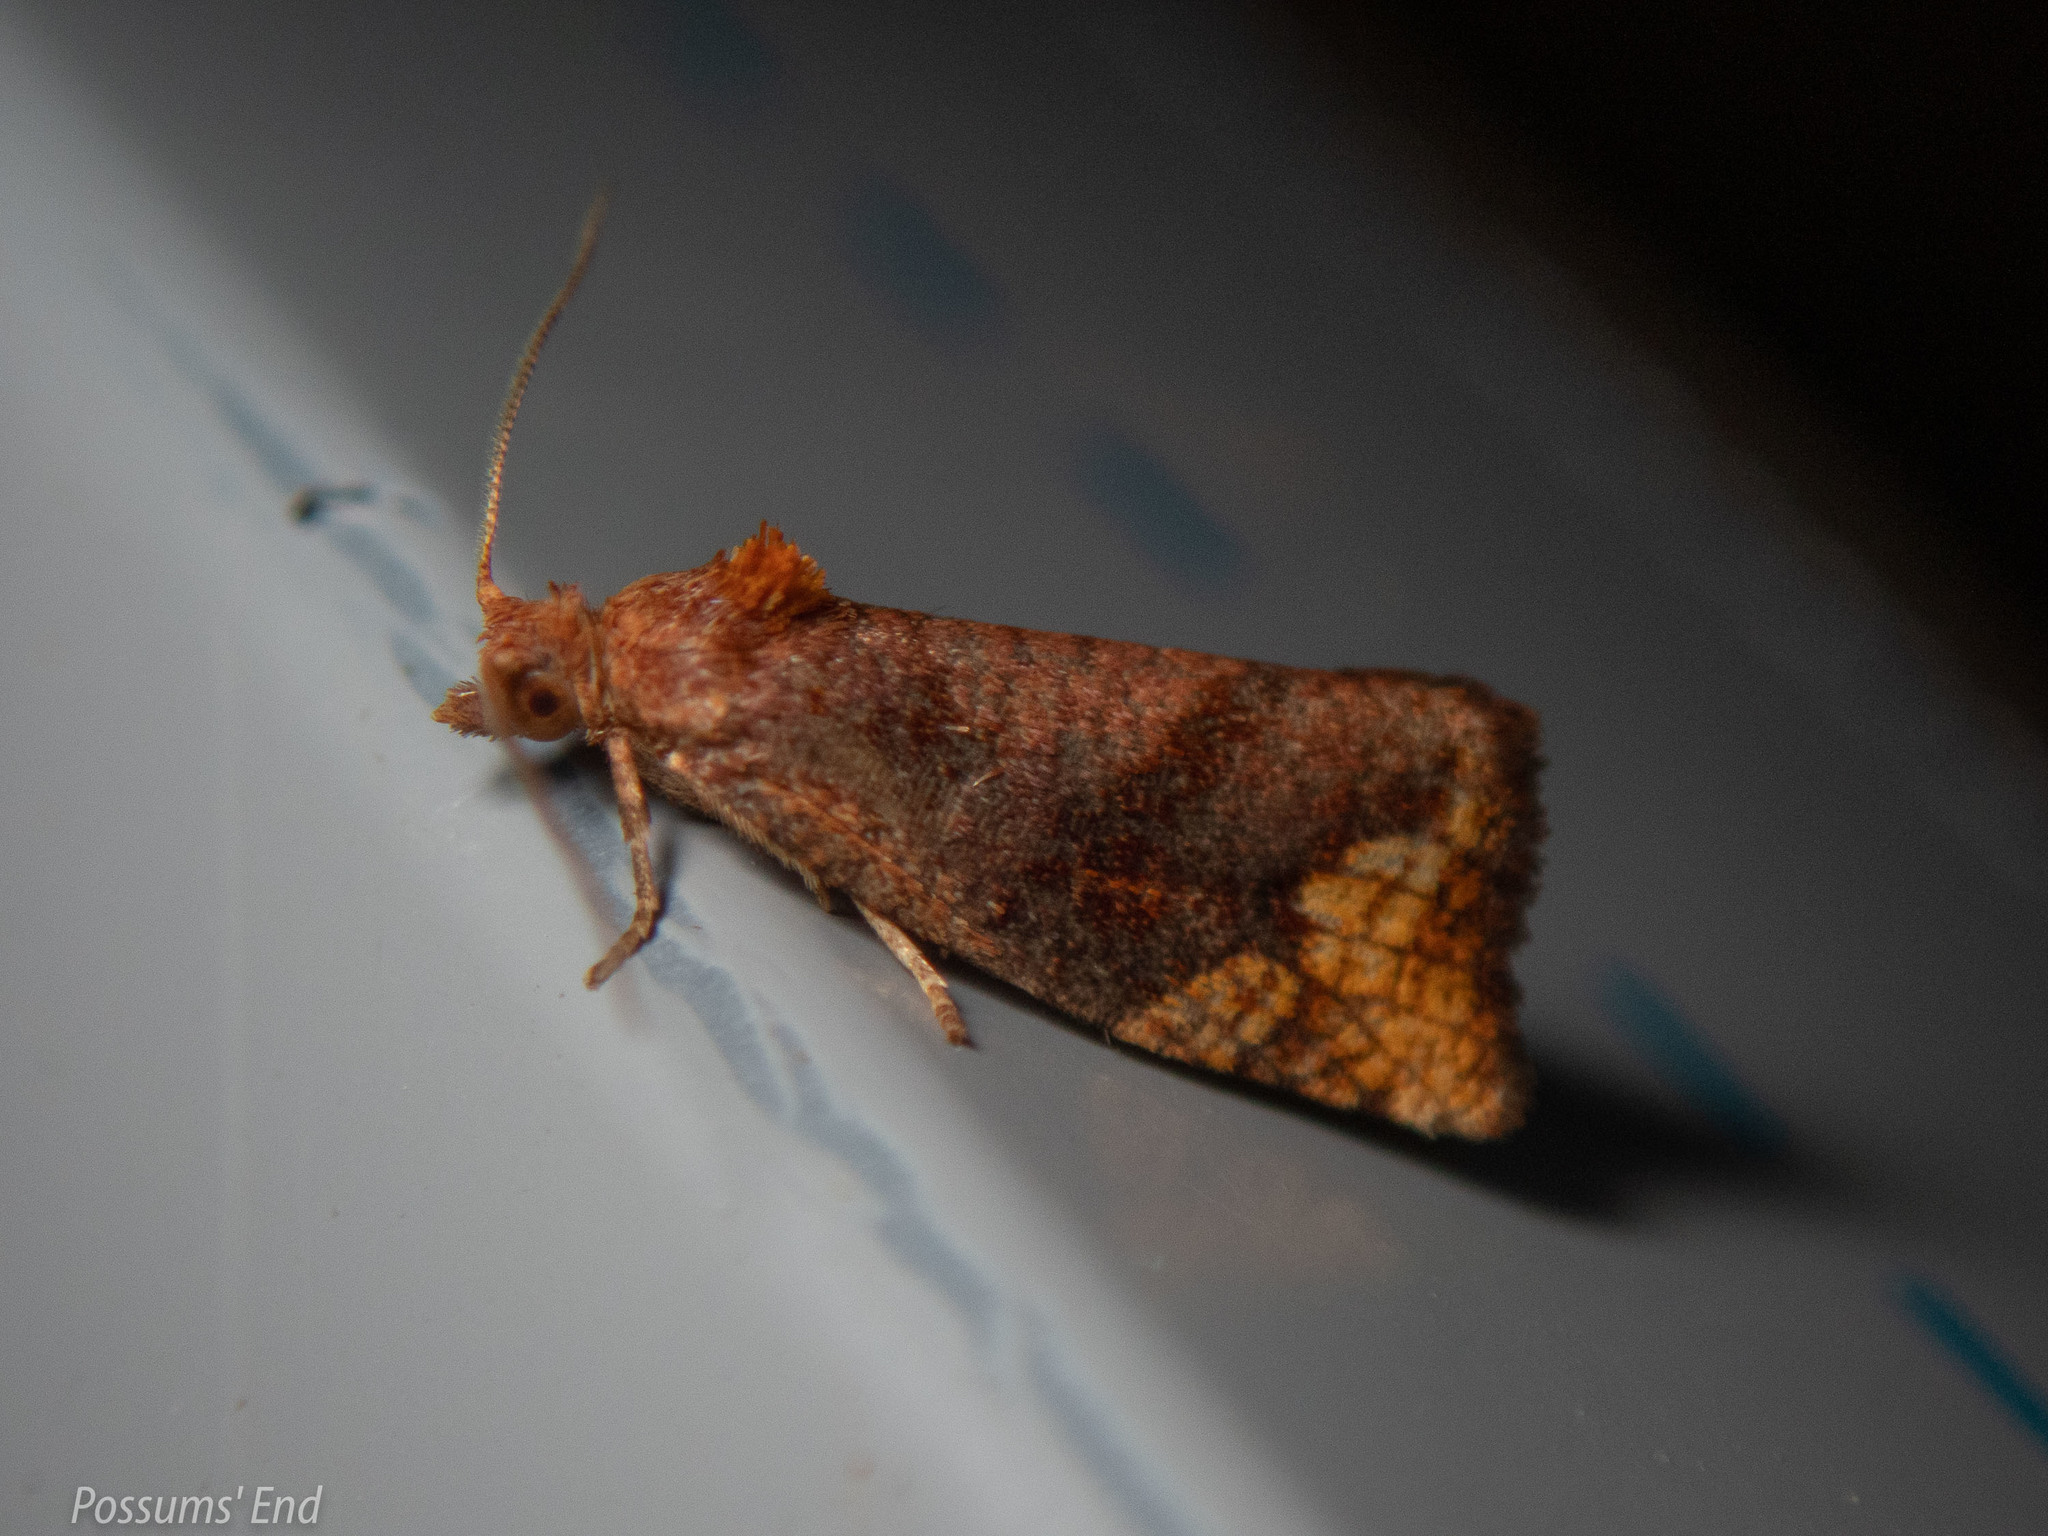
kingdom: Animalia
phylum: Arthropoda
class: Insecta
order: Lepidoptera
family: Tortricidae
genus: Pyrgotis
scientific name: Pyrgotis eudorana
